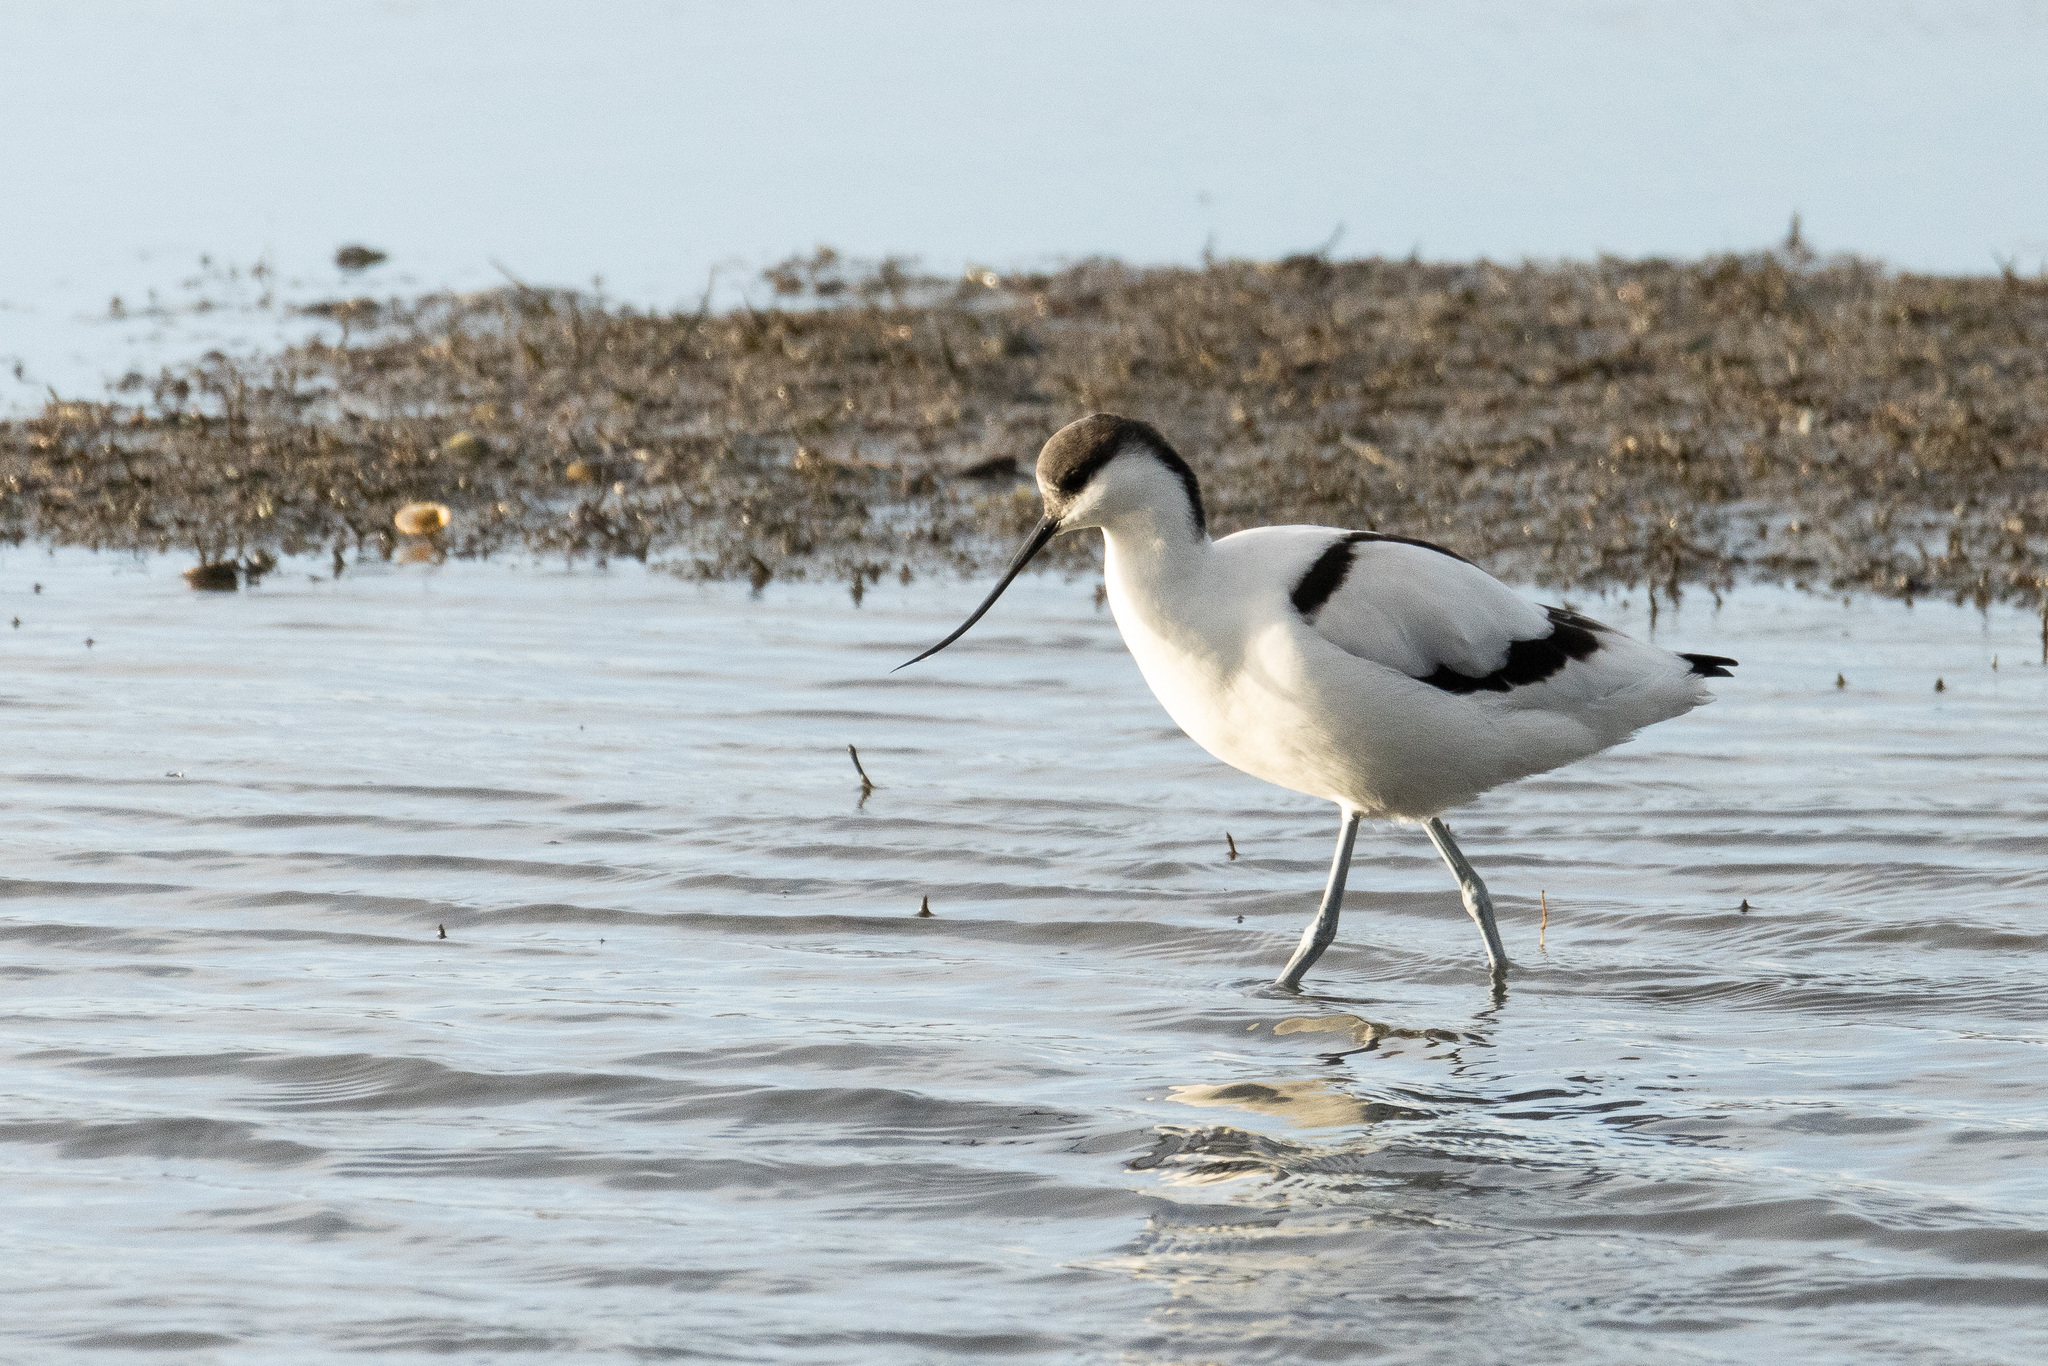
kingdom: Animalia
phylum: Chordata
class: Aves
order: Charadriiformes
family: Recurvirostridae
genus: Recurvirostra
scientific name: Recurvirostra avosetta
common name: Pied avocet
